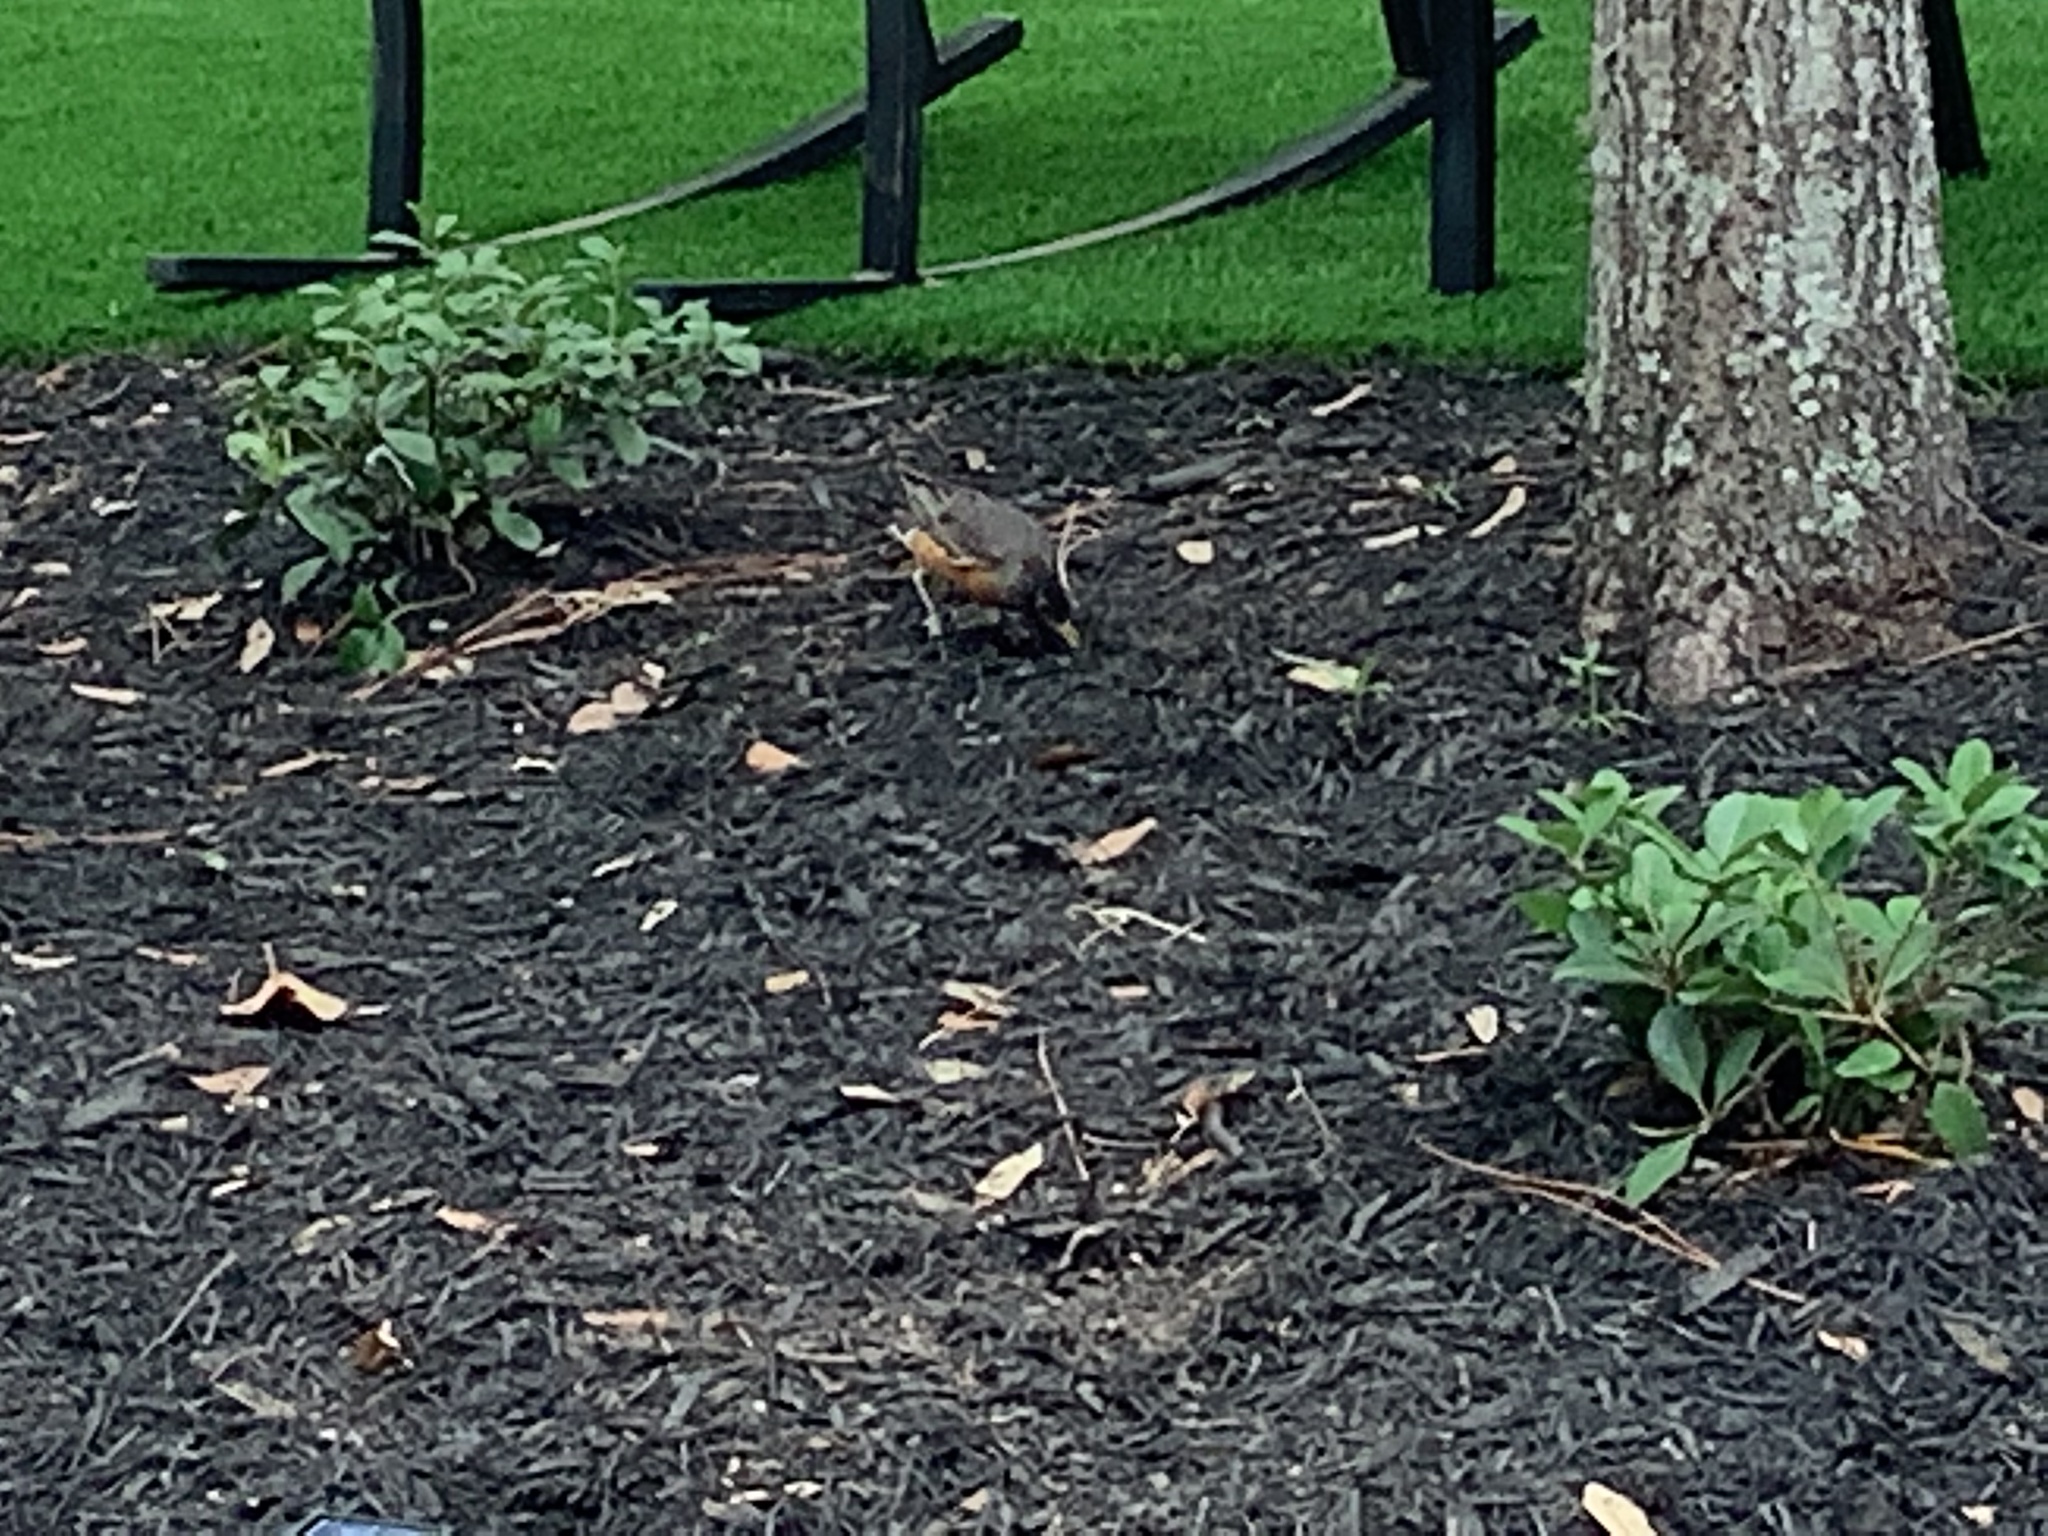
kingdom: Animalia
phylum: Chordata
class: Aves
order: Passeriformes
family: Turdidae
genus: Turdus
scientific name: Turdus migratorius
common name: American robin
